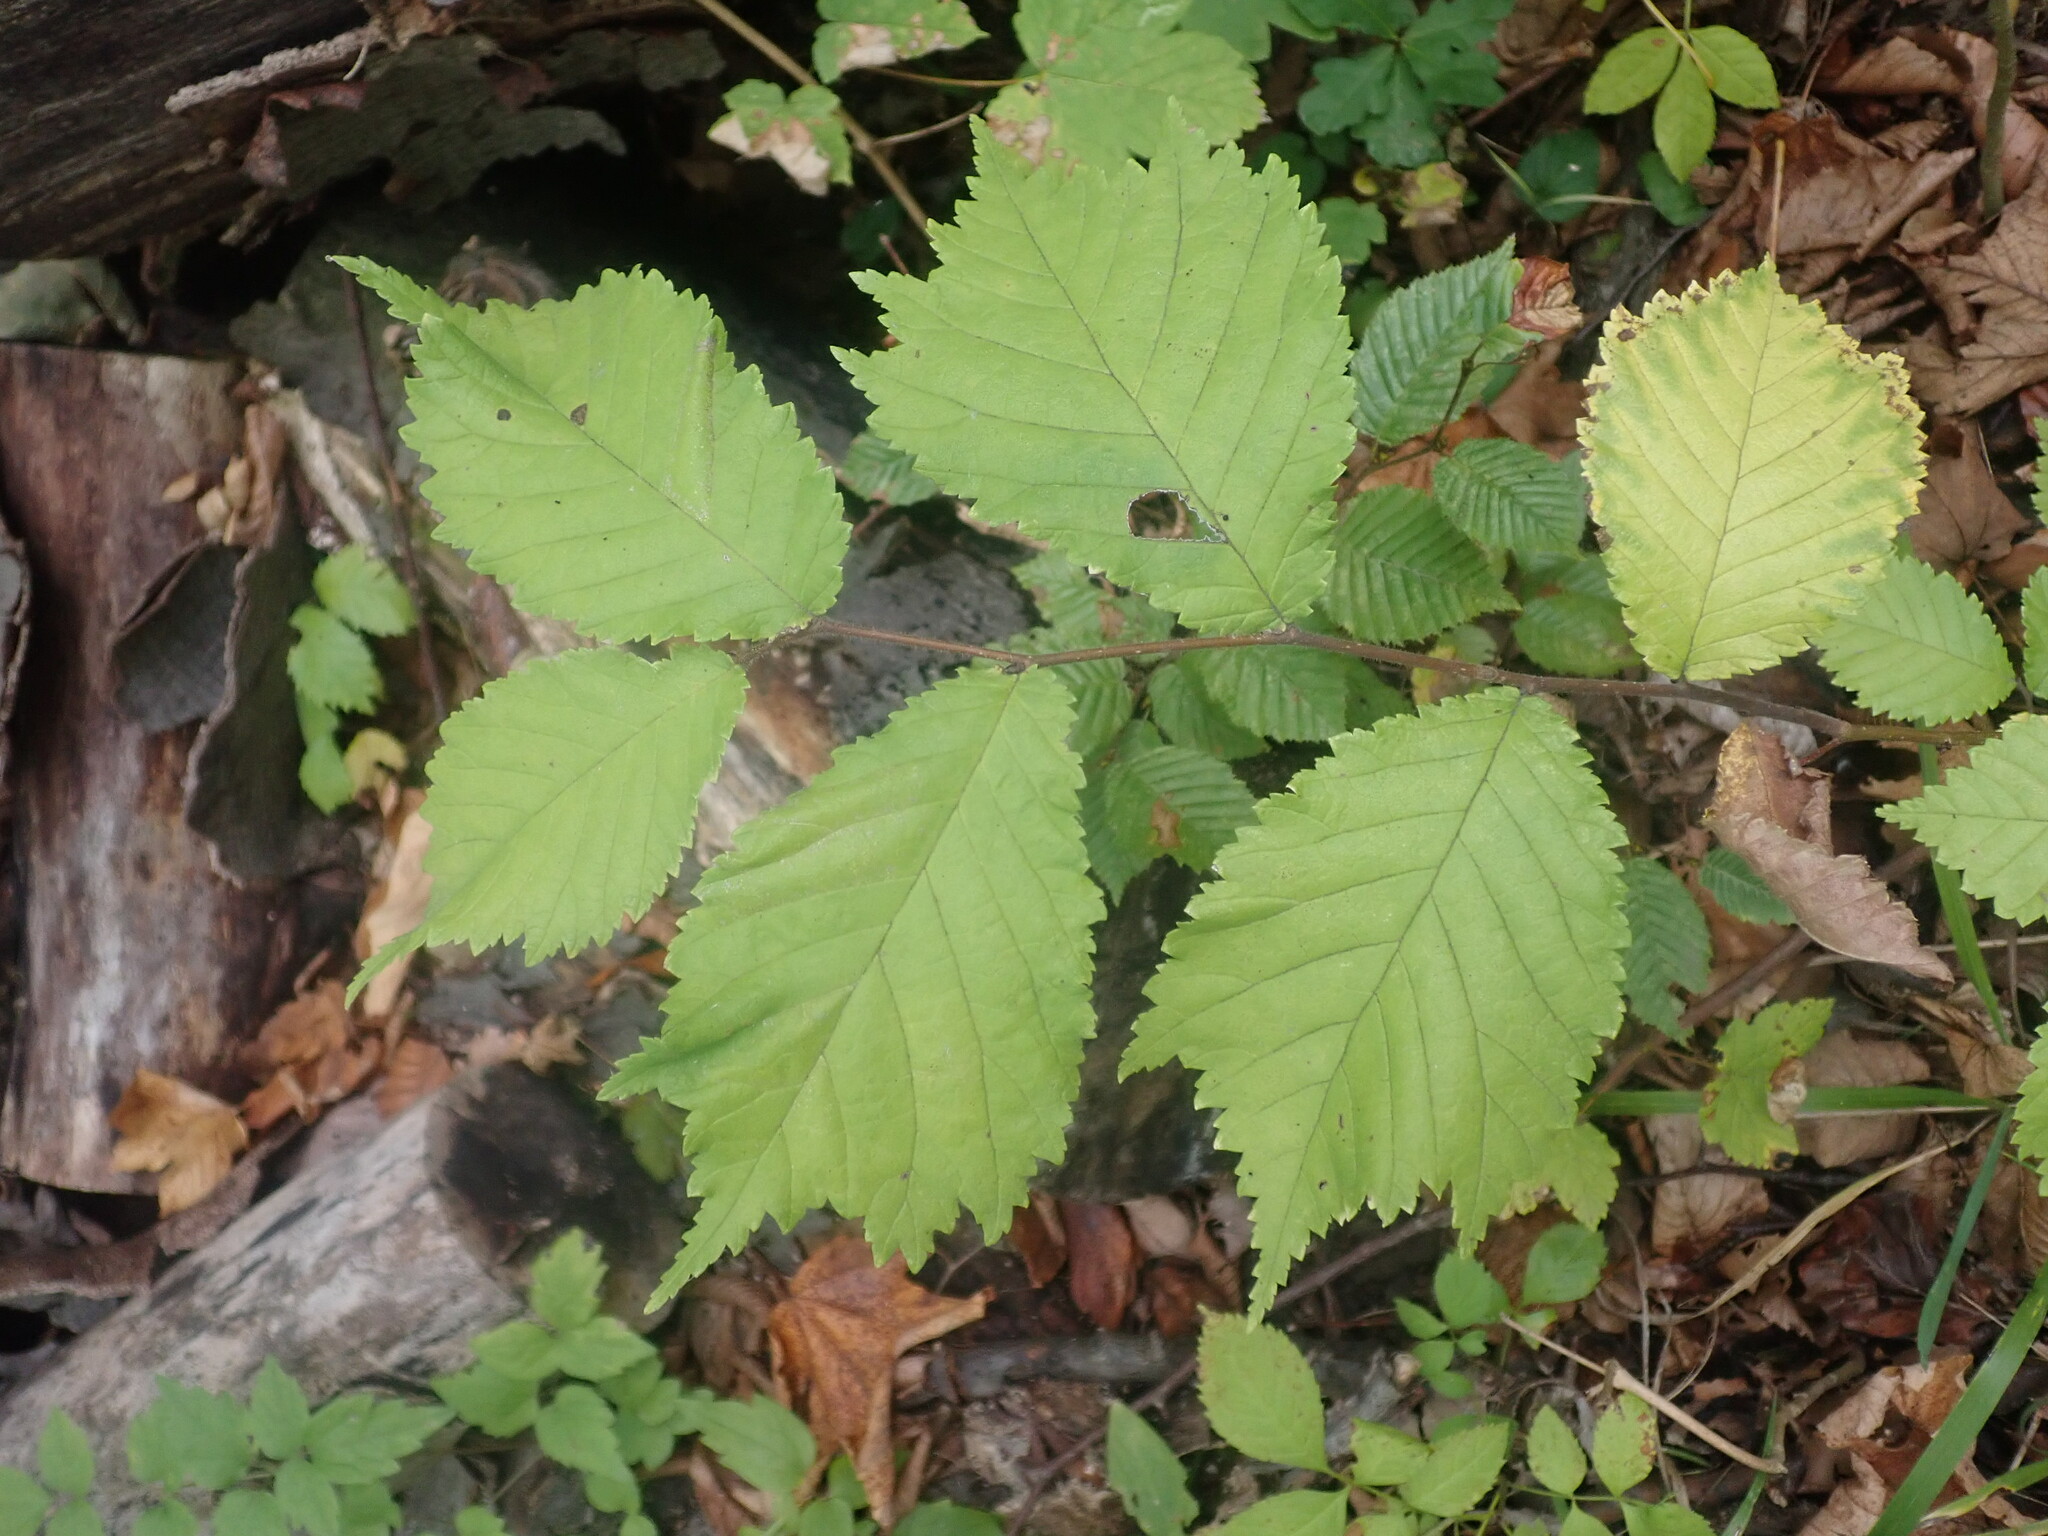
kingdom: Plantae
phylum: Tracheophyta
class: Magnoliopsida
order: Rosales
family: Ulmaceae
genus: Ulmus
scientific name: Ulmus glabra
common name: Wych elm
